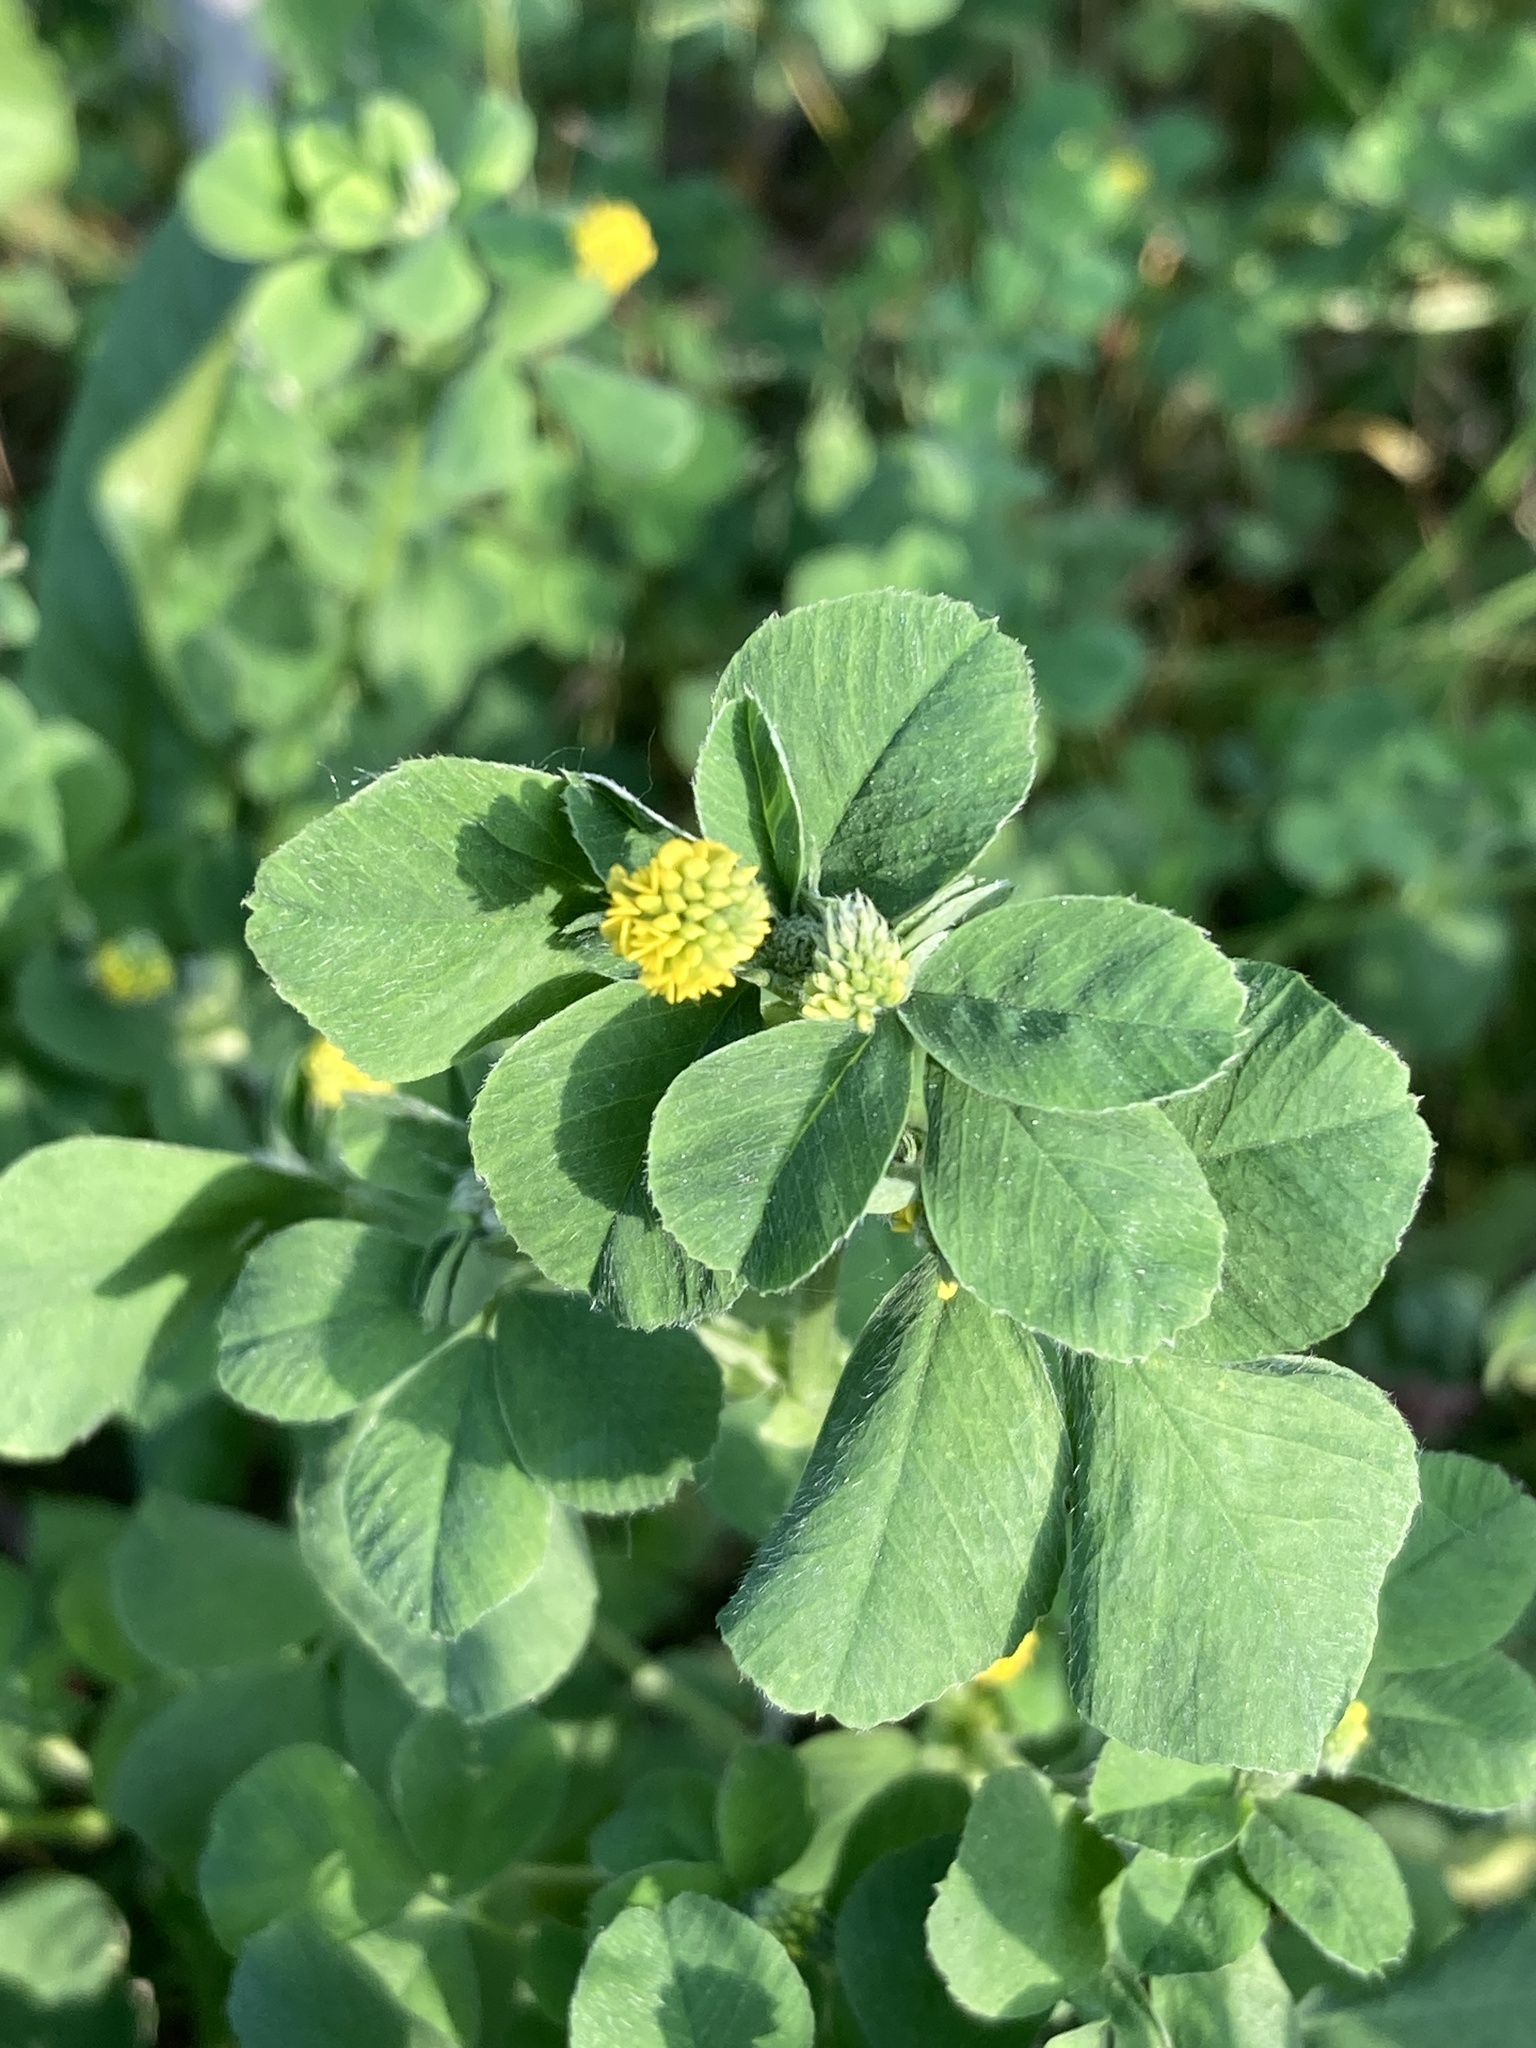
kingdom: Plantae
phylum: Tracheophyta
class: Magnoliopsida
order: Fabales
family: Fabaceae
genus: Medicago
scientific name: Medicago lupulina
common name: Black medick
